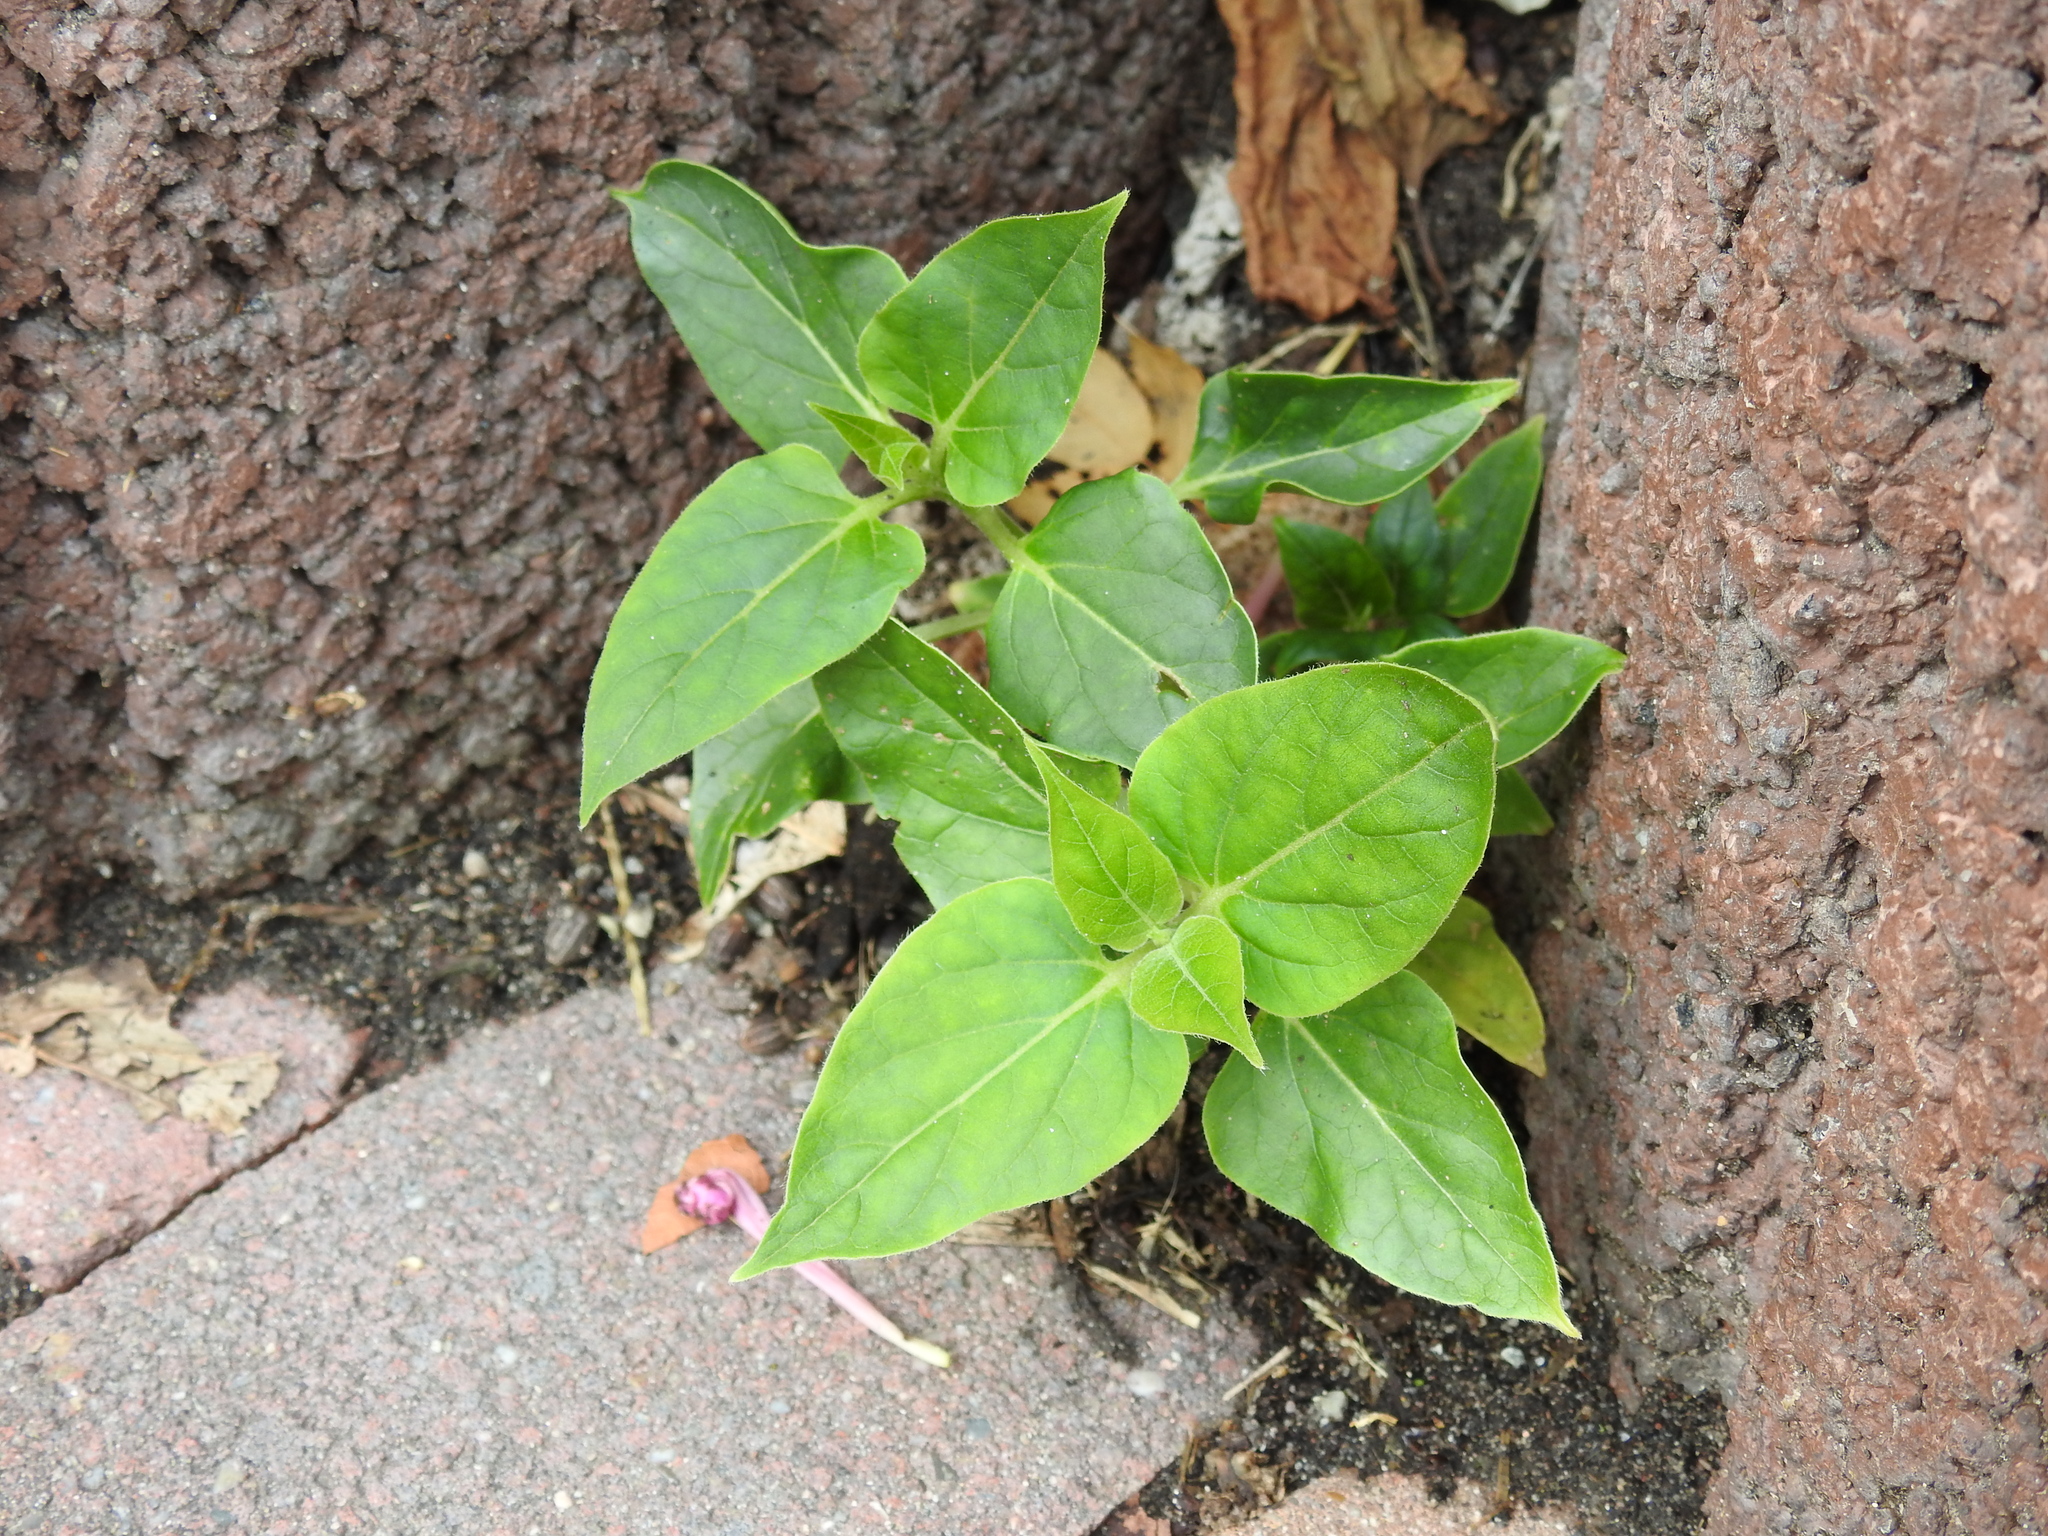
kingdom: Plantae
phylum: Tracheophyta
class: Magnoliopsida
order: Caryophyllales
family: Nyctaginaceae
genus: Mirabilis
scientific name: Mirabilis jalapa
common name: Marvel-of-peru
